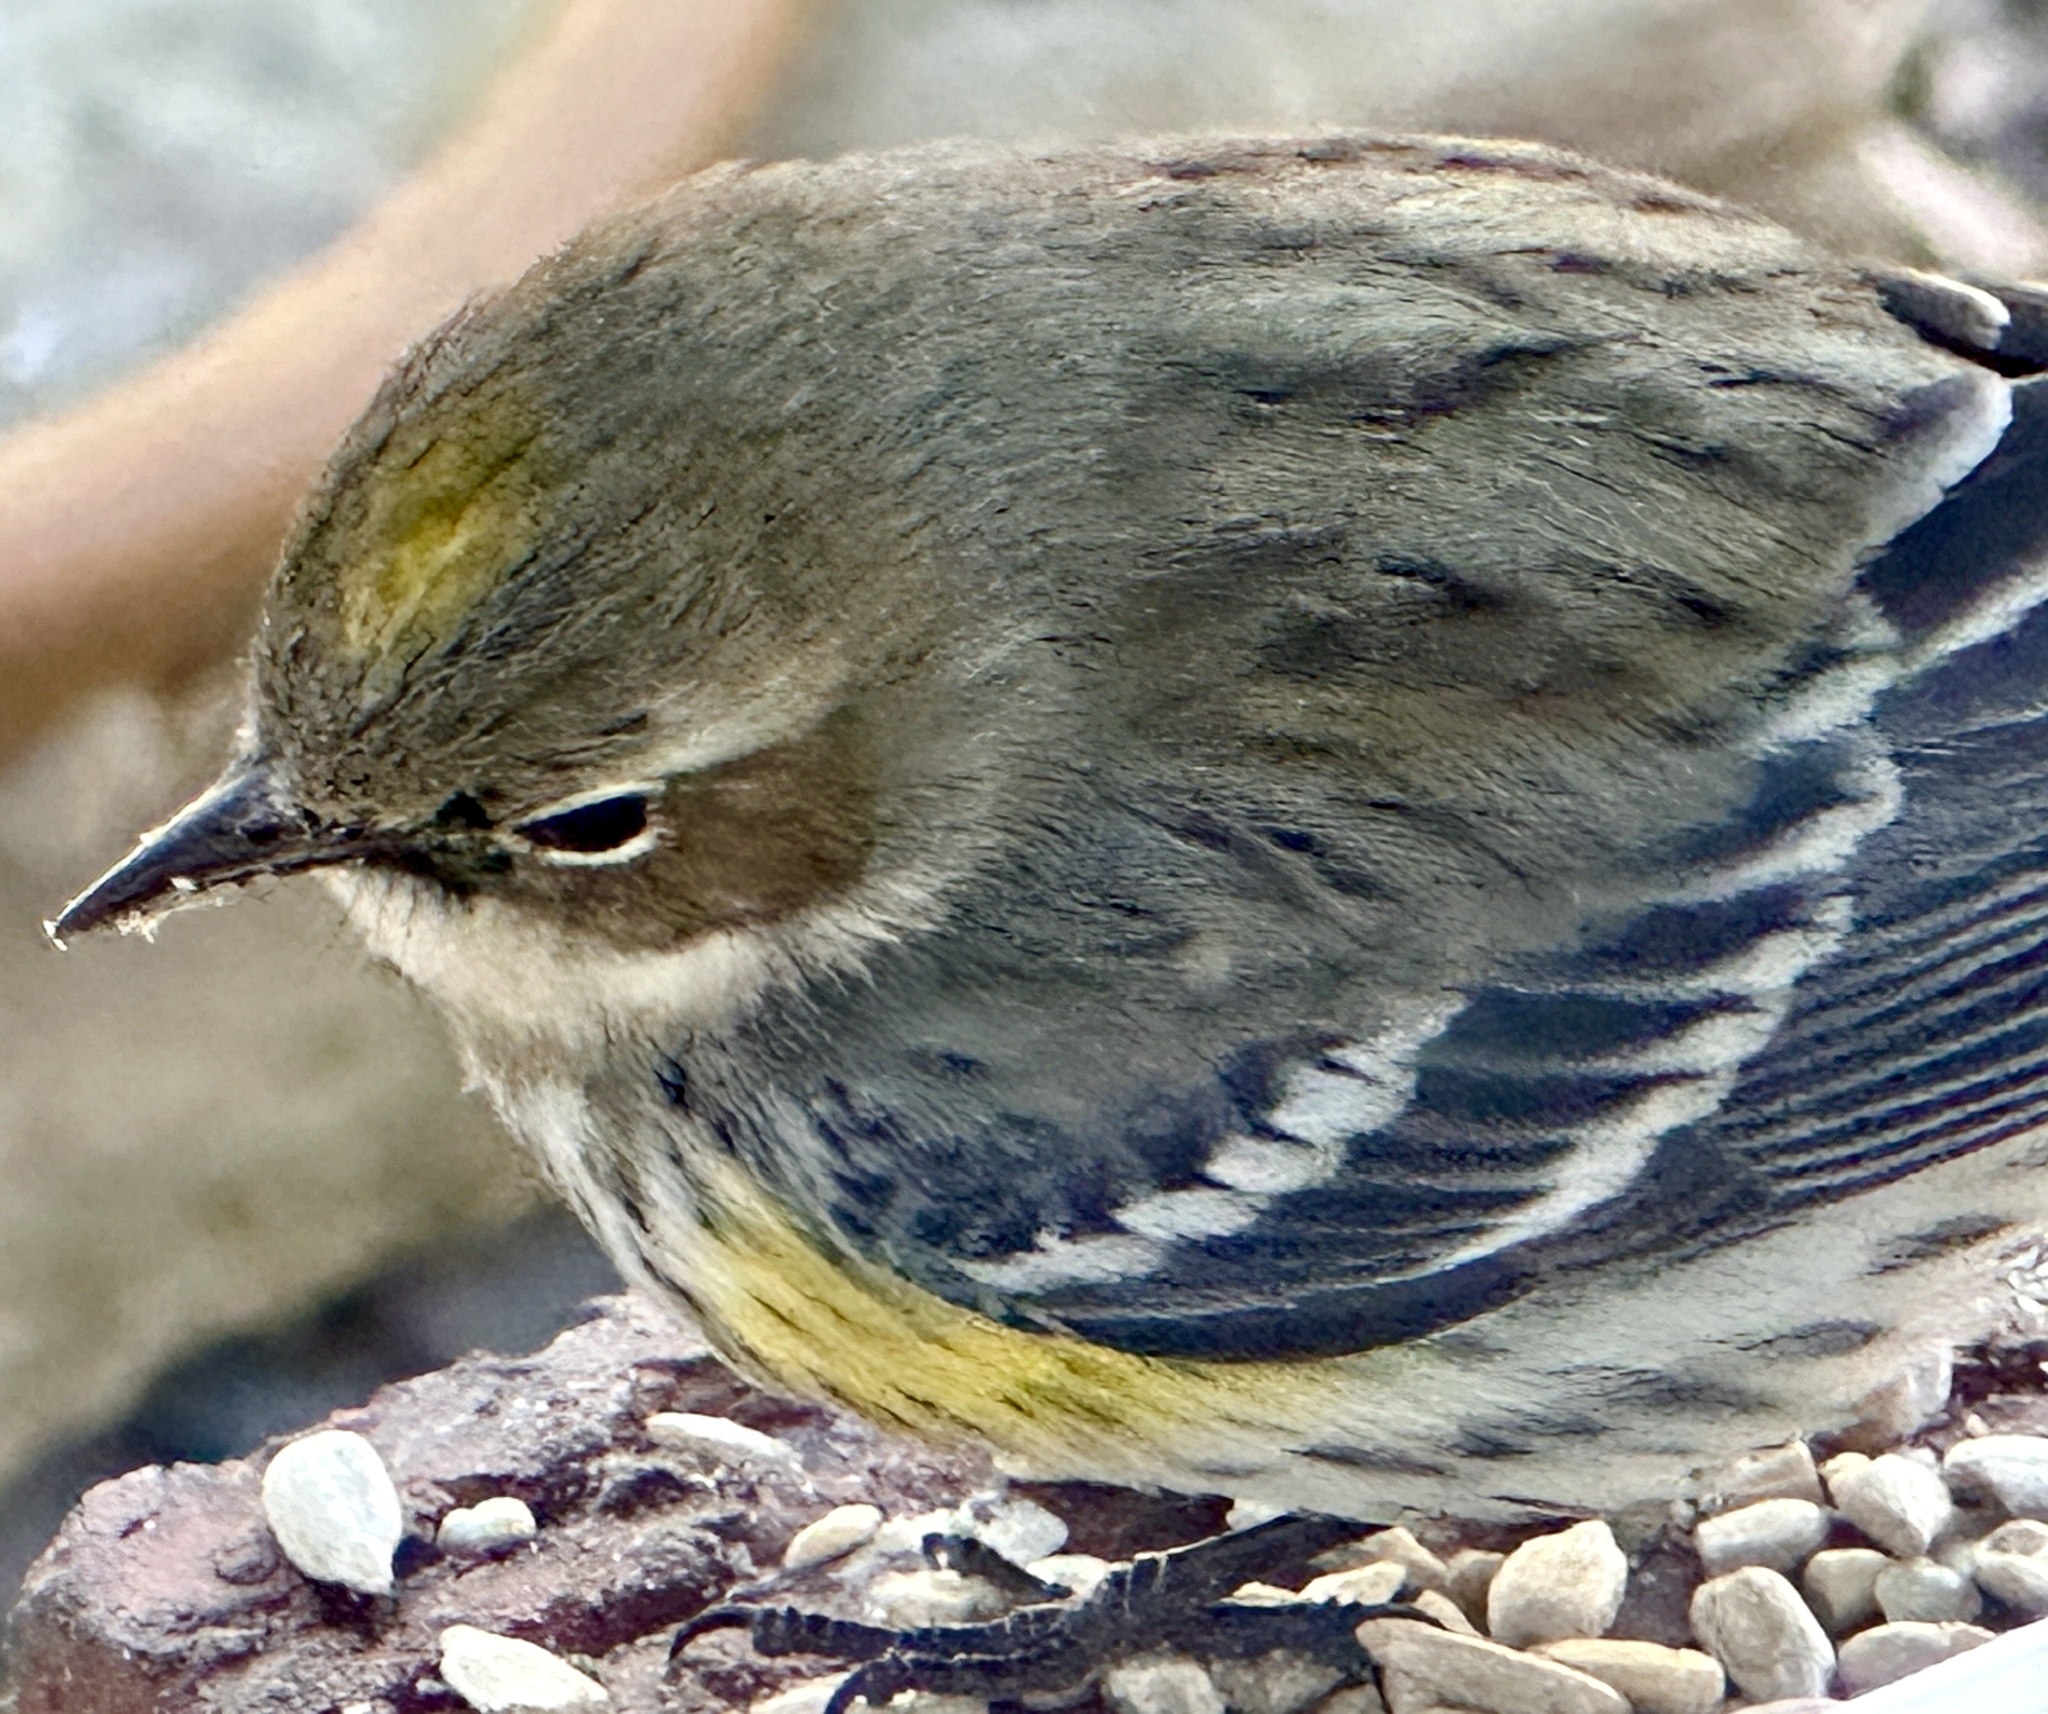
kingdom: Animalia
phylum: Chordata
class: Aves
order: Passeriformes
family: Parulidae
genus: Setophaga
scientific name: Setophaga coronata
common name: Myrtle warbler
